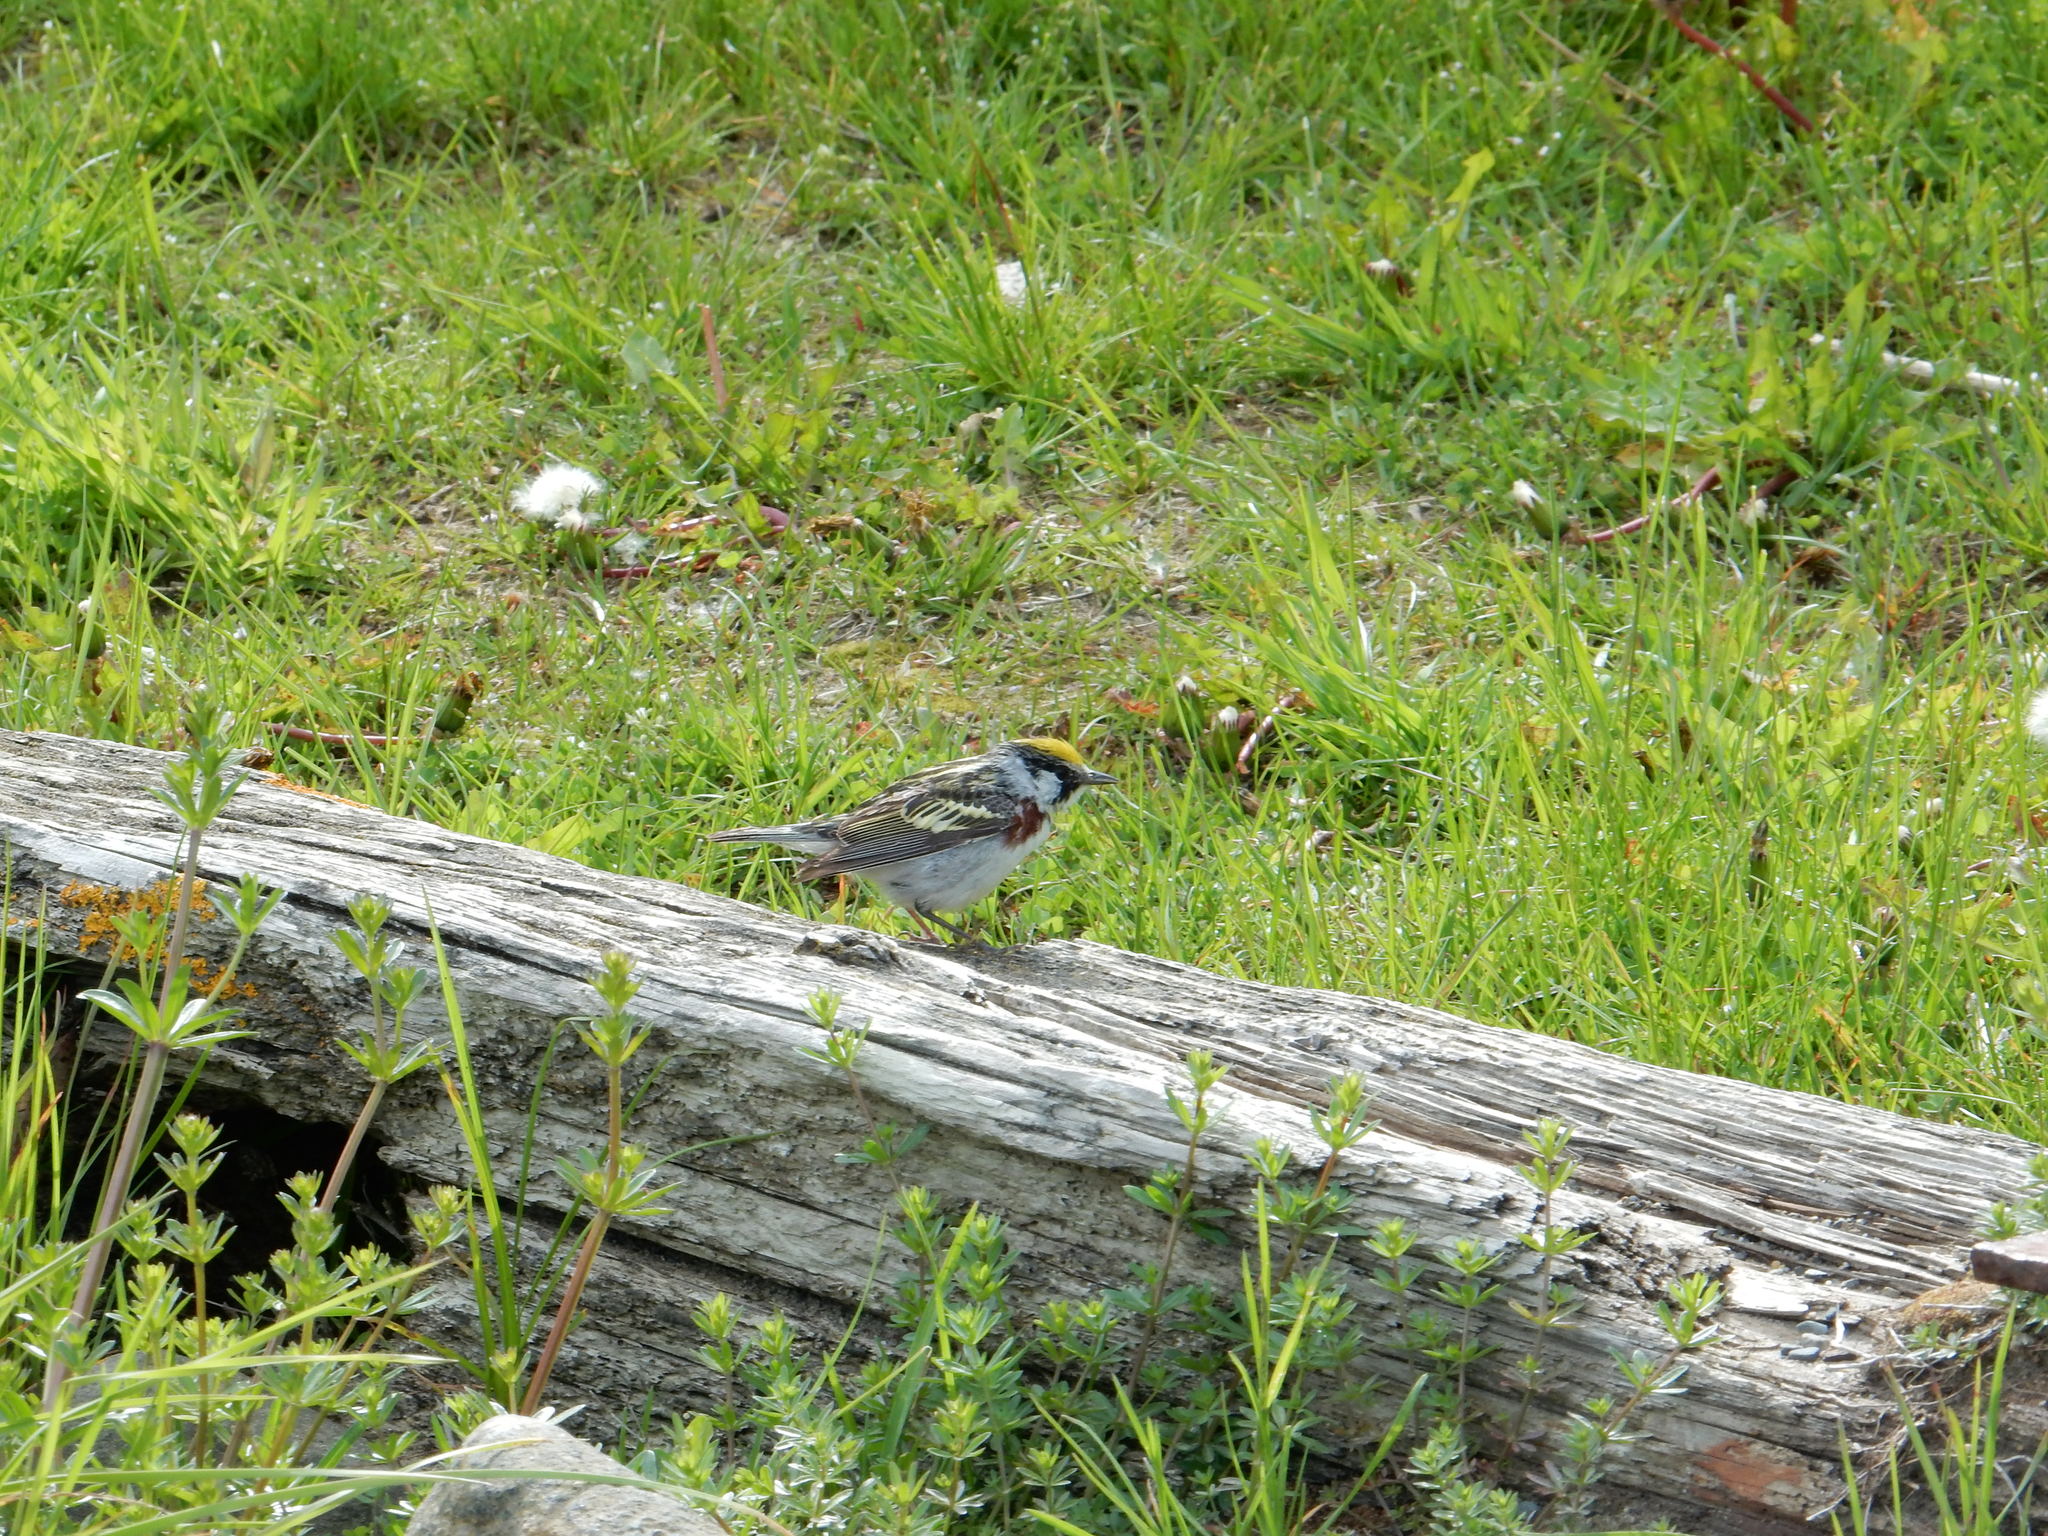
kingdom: Animalia
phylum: Chordata
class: Aves
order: Passeriformes
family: Parulidae
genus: Setophaga
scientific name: Setophaga pensylvanica
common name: Chestnut-sided warbler
